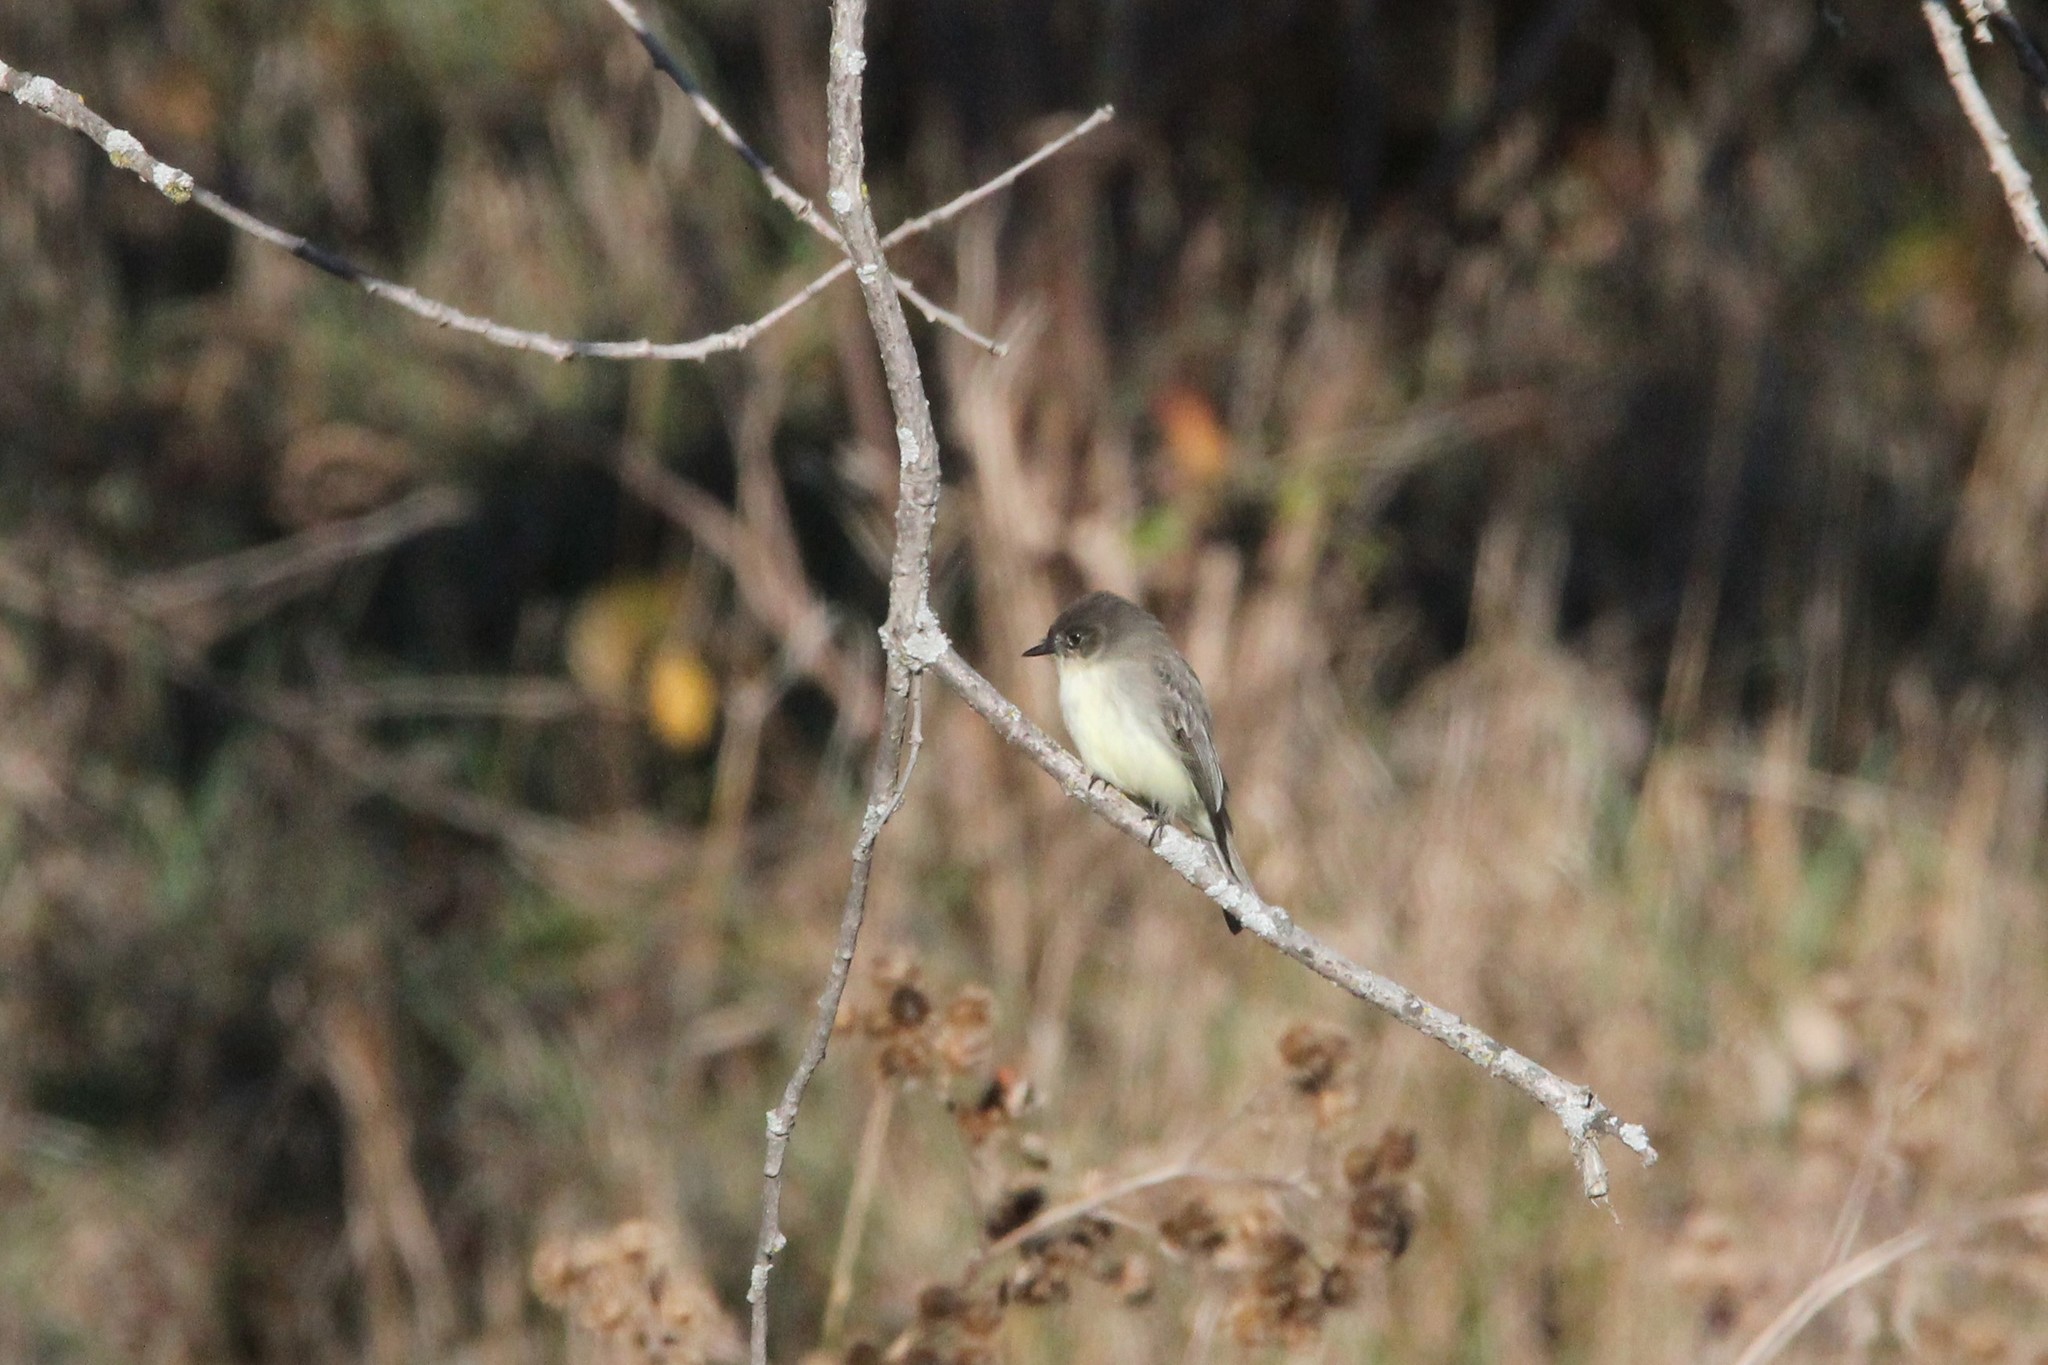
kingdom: Animalia
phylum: Chordata
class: Aves
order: Passeriformes
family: Tyrannidae
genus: Sayornis
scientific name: Sayornis phoebe
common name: Eastern phoebe
